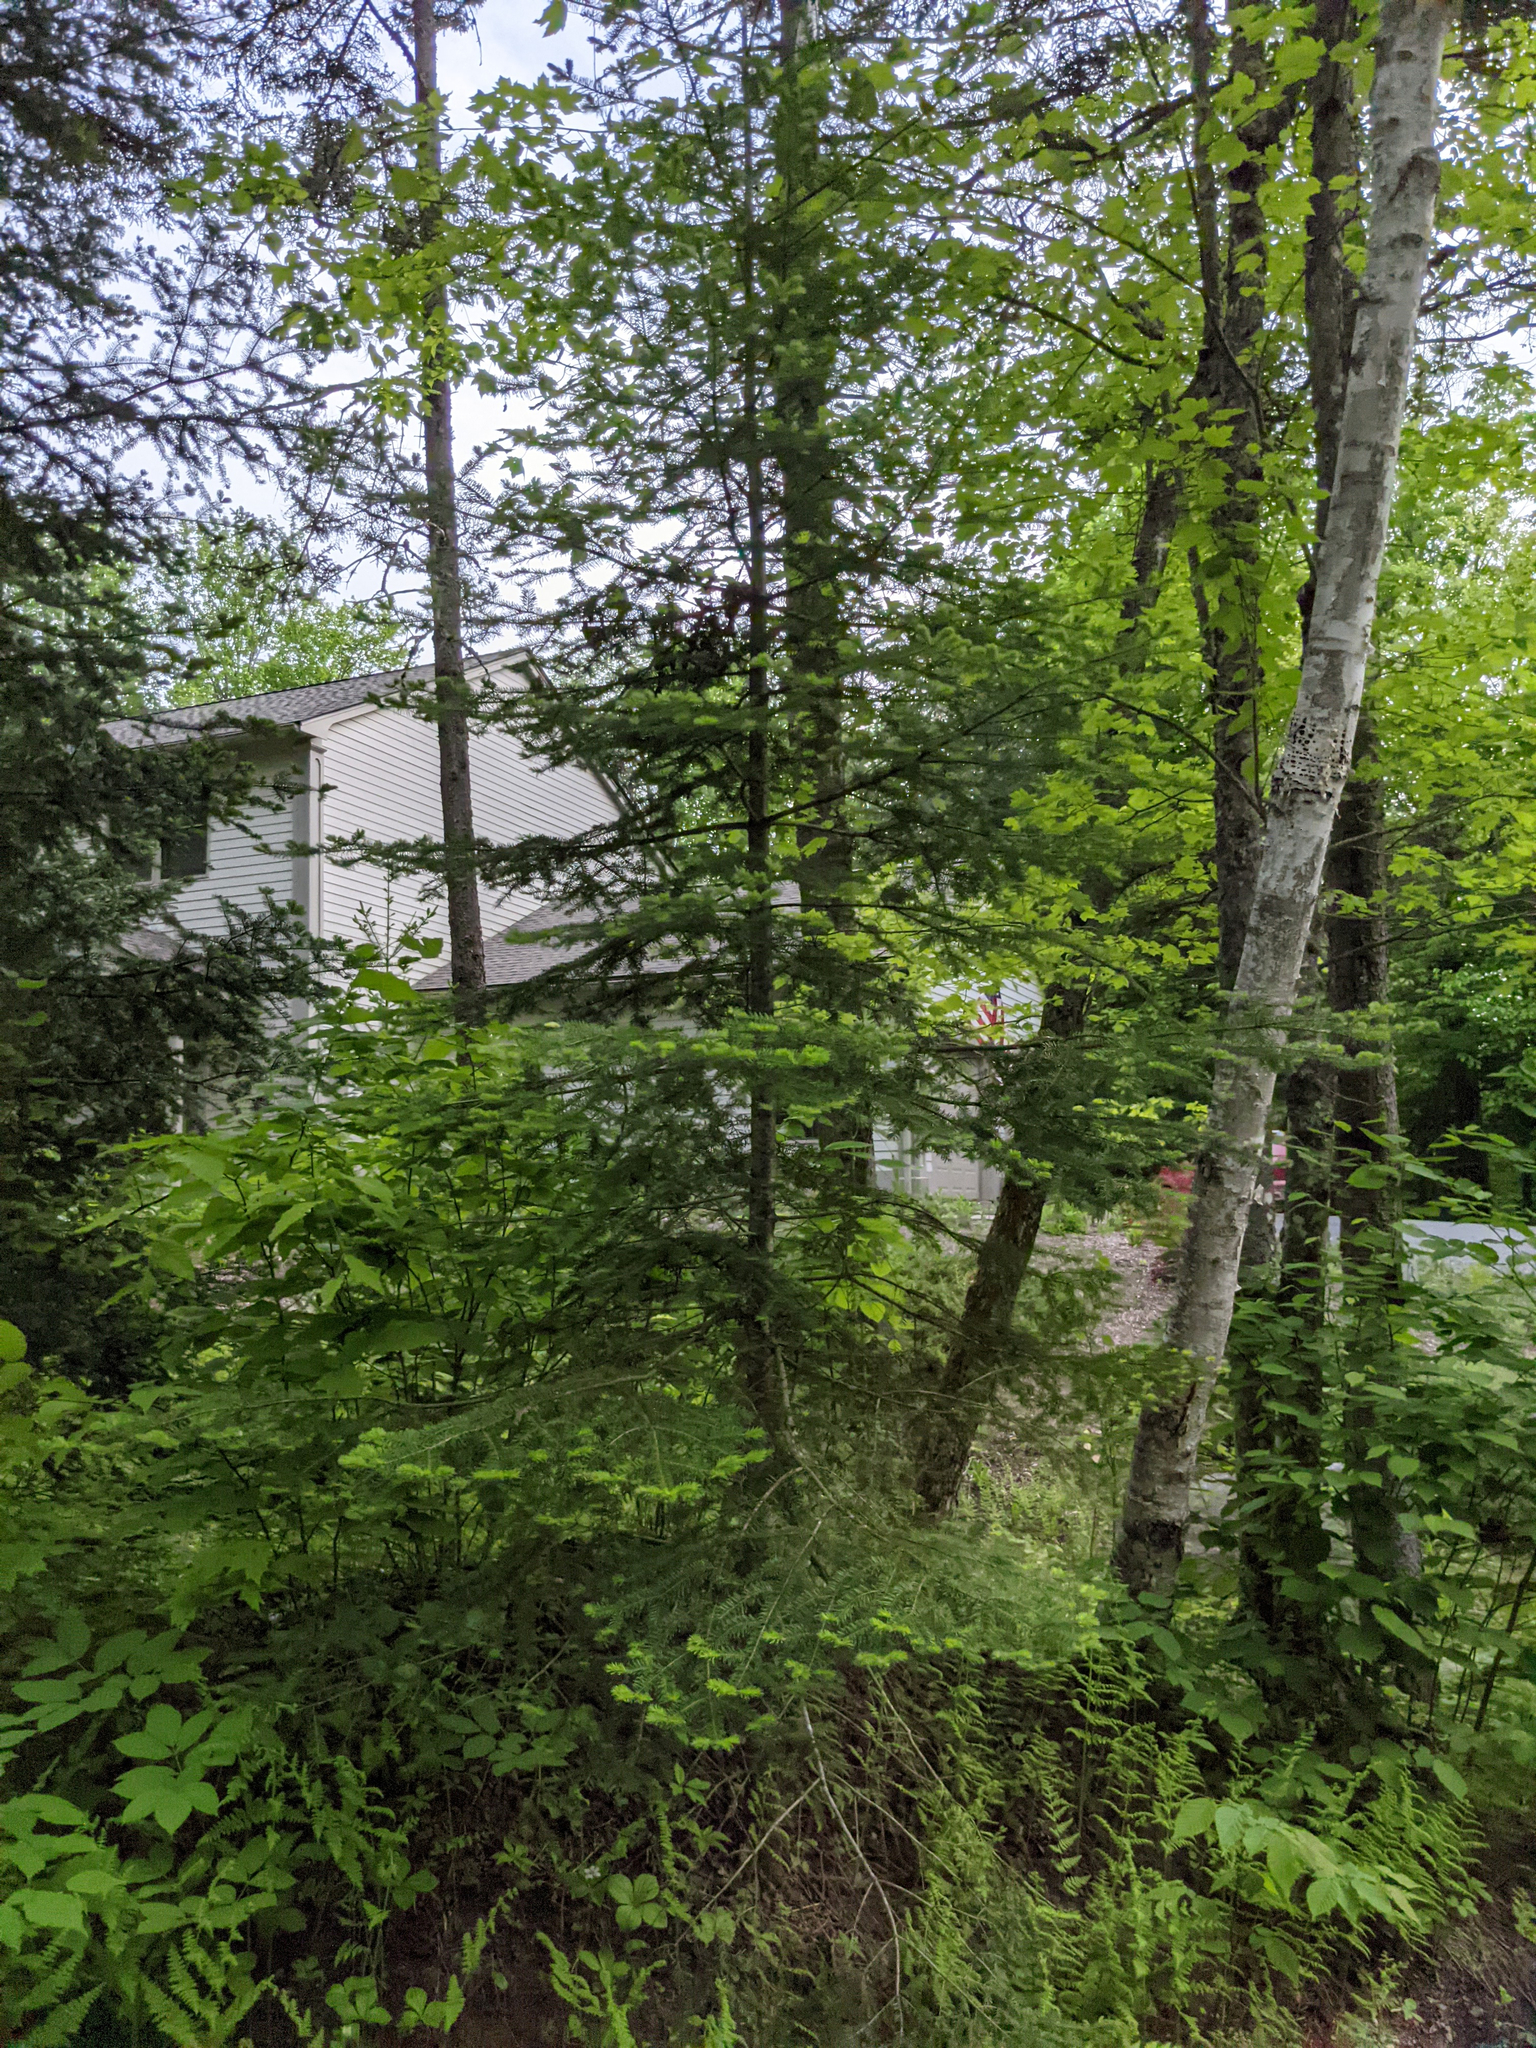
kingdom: Plantae
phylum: Tracheophyta
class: Pinopsida
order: Pinales
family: Pinaceae
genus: Abies
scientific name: Abies balsamea
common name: Balsam fir
